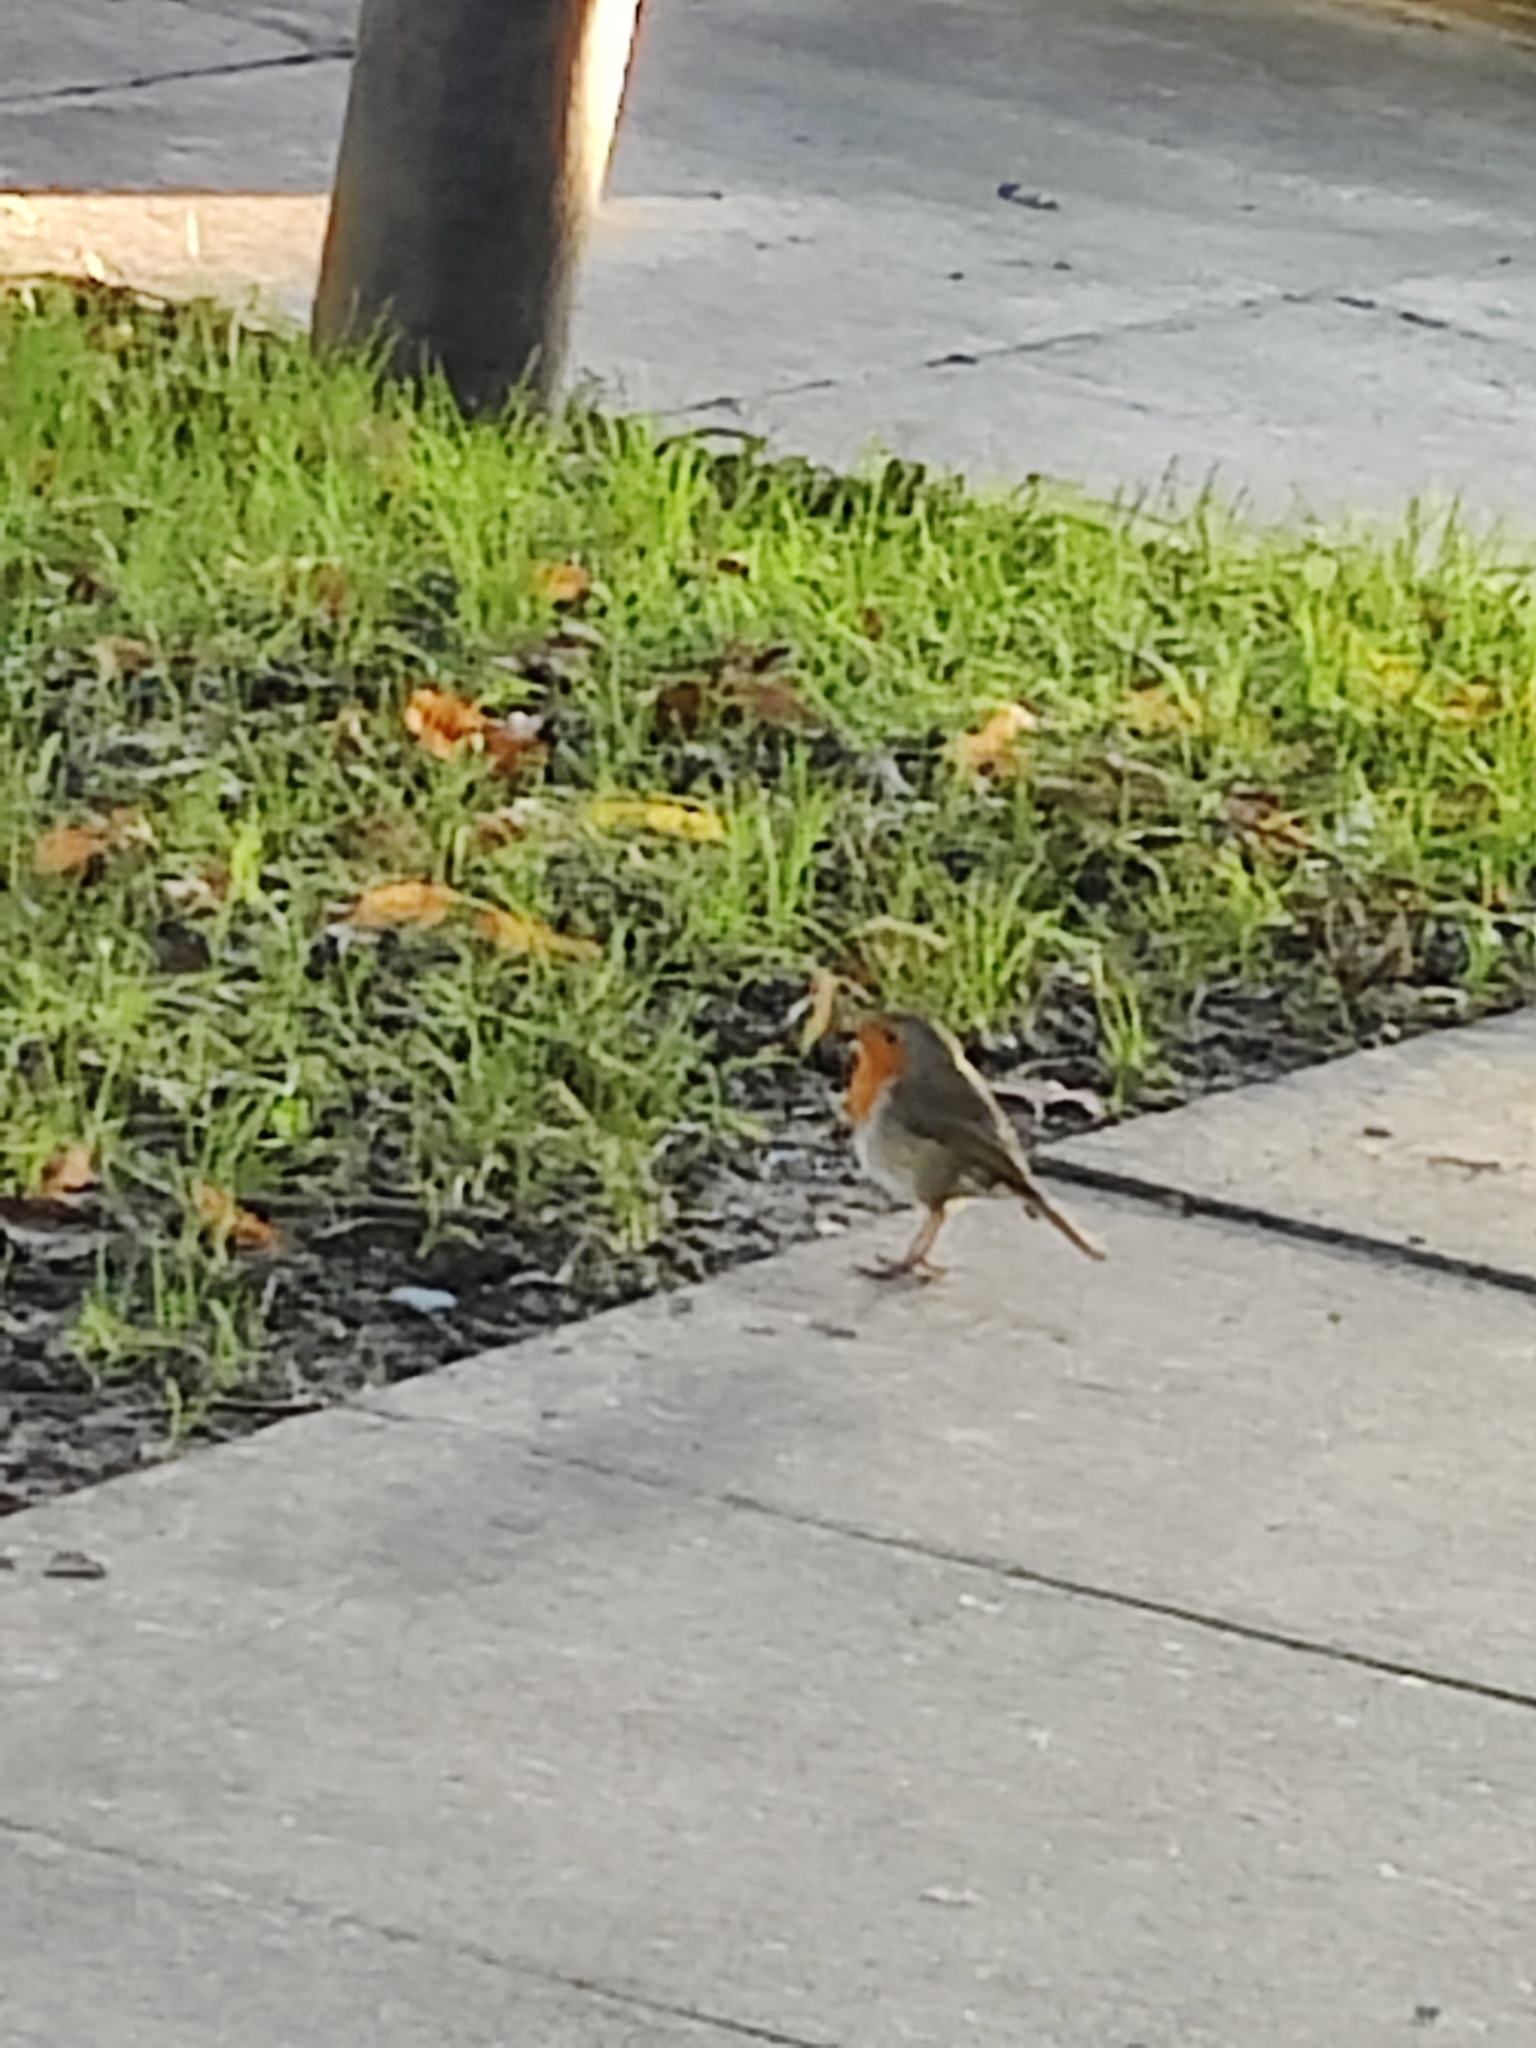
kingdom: Animalia
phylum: Chordata
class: Aves
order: Passeriformes
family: Muscicapidae
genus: Erithacus
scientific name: Erithacus rubecula
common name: European robin
